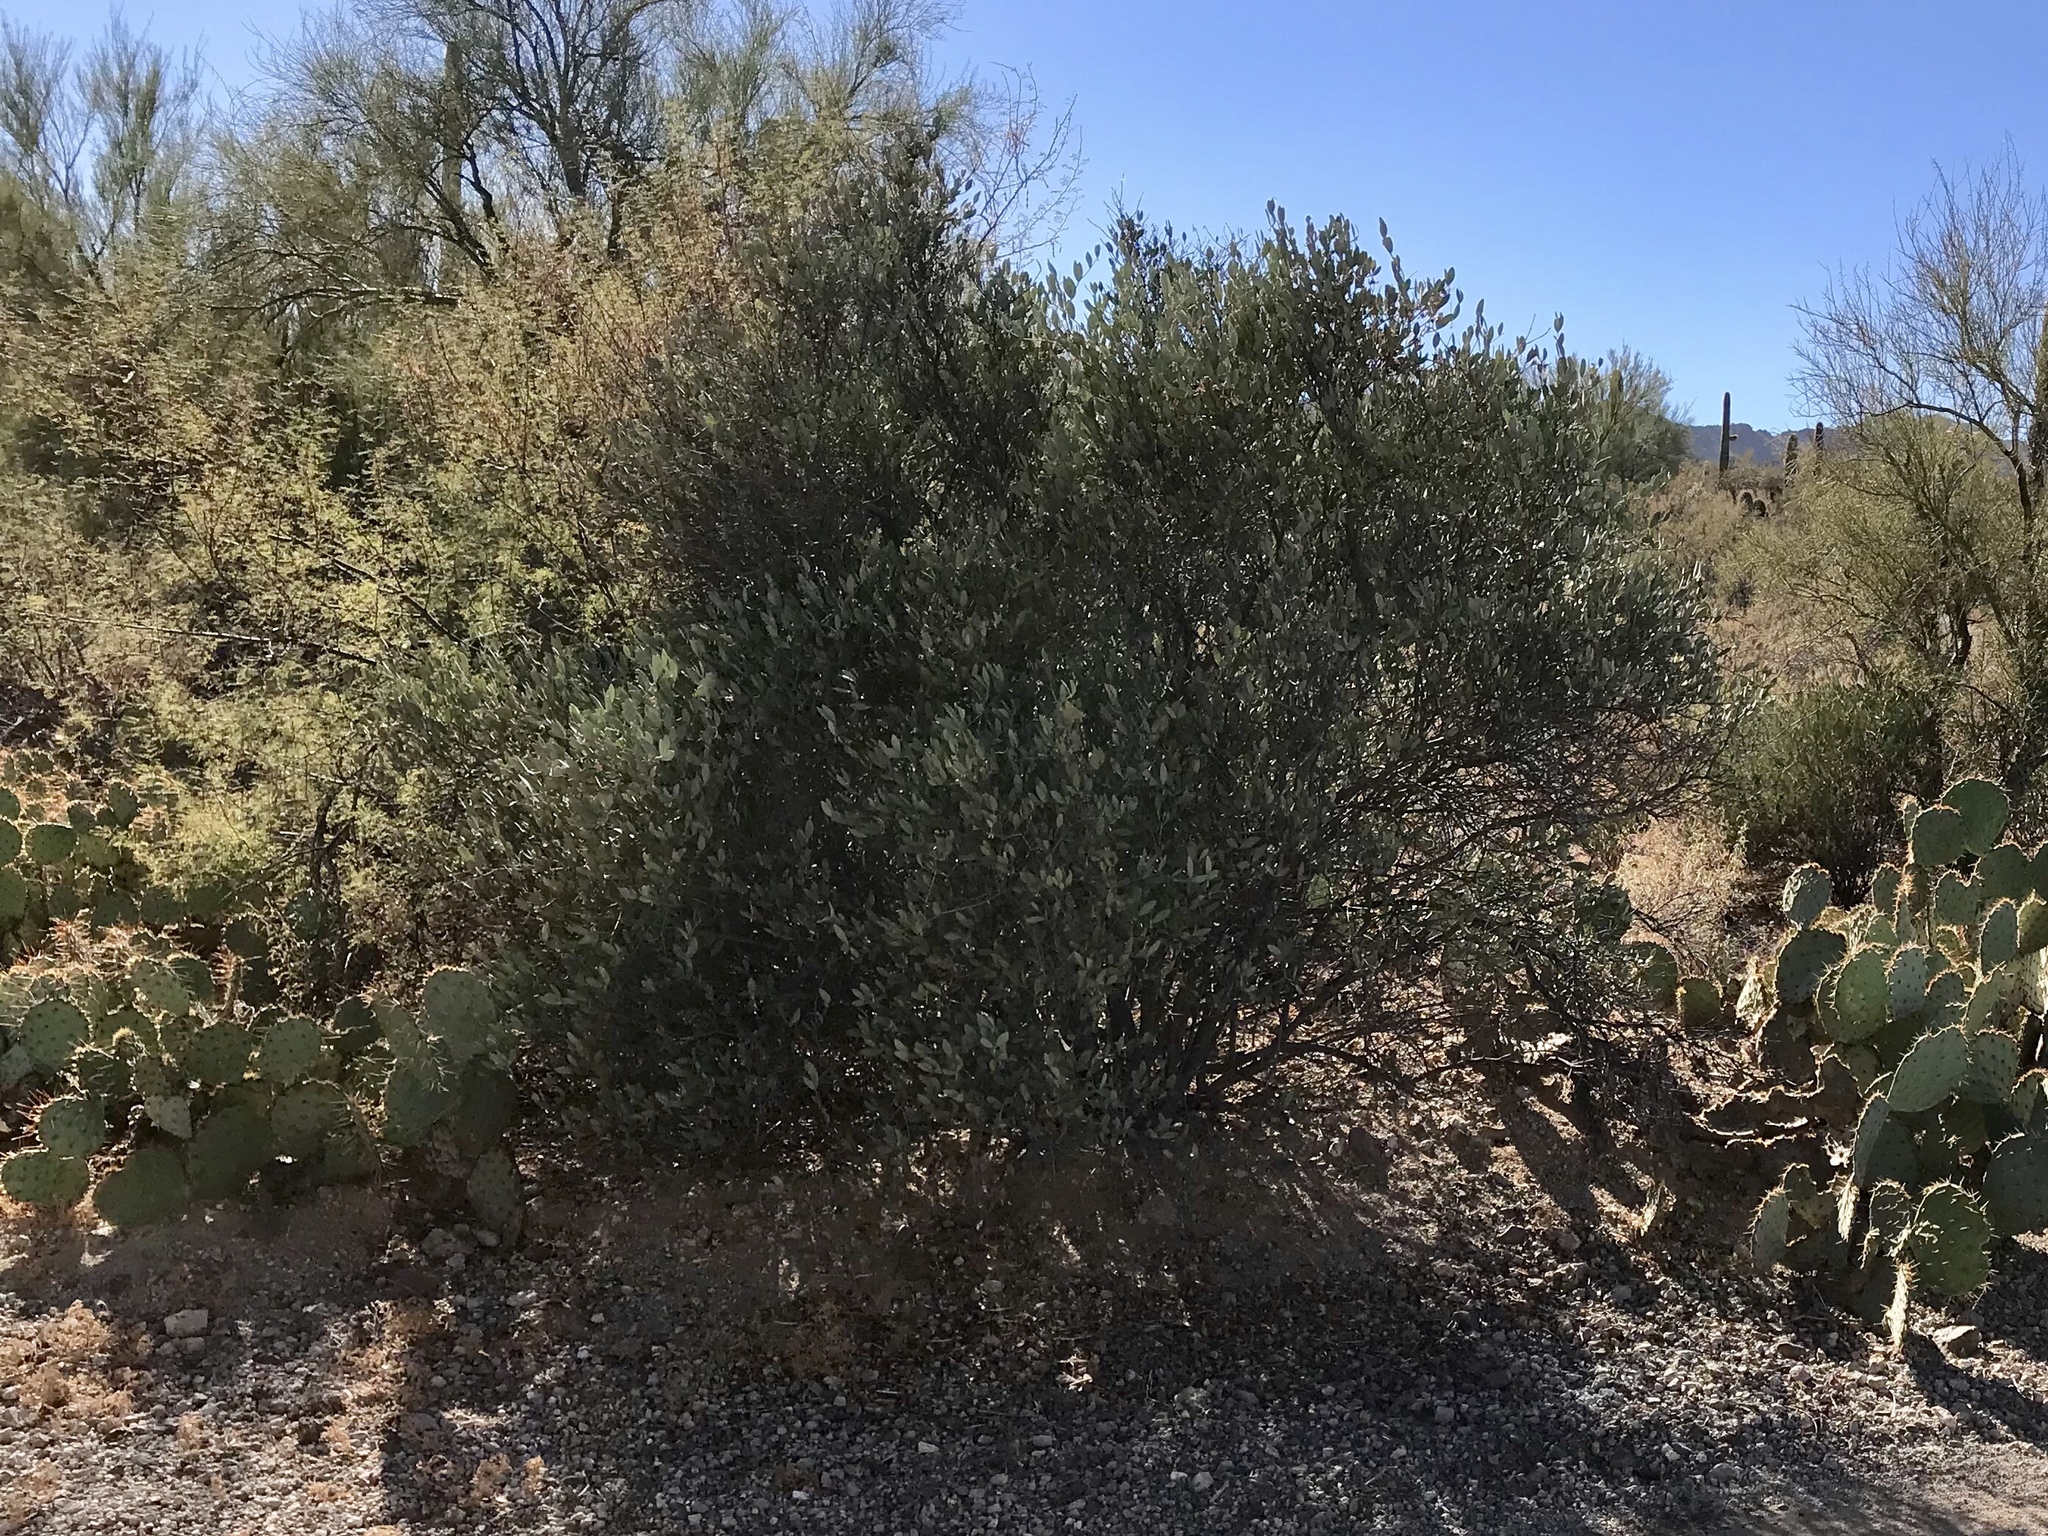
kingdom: Plantae
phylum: Tracheophyta
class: Magnoliopsida
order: Caryophyllales
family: Simmondsiaceae
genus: Simmondsia
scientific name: Simmondsia chinensis
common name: Jojoba
